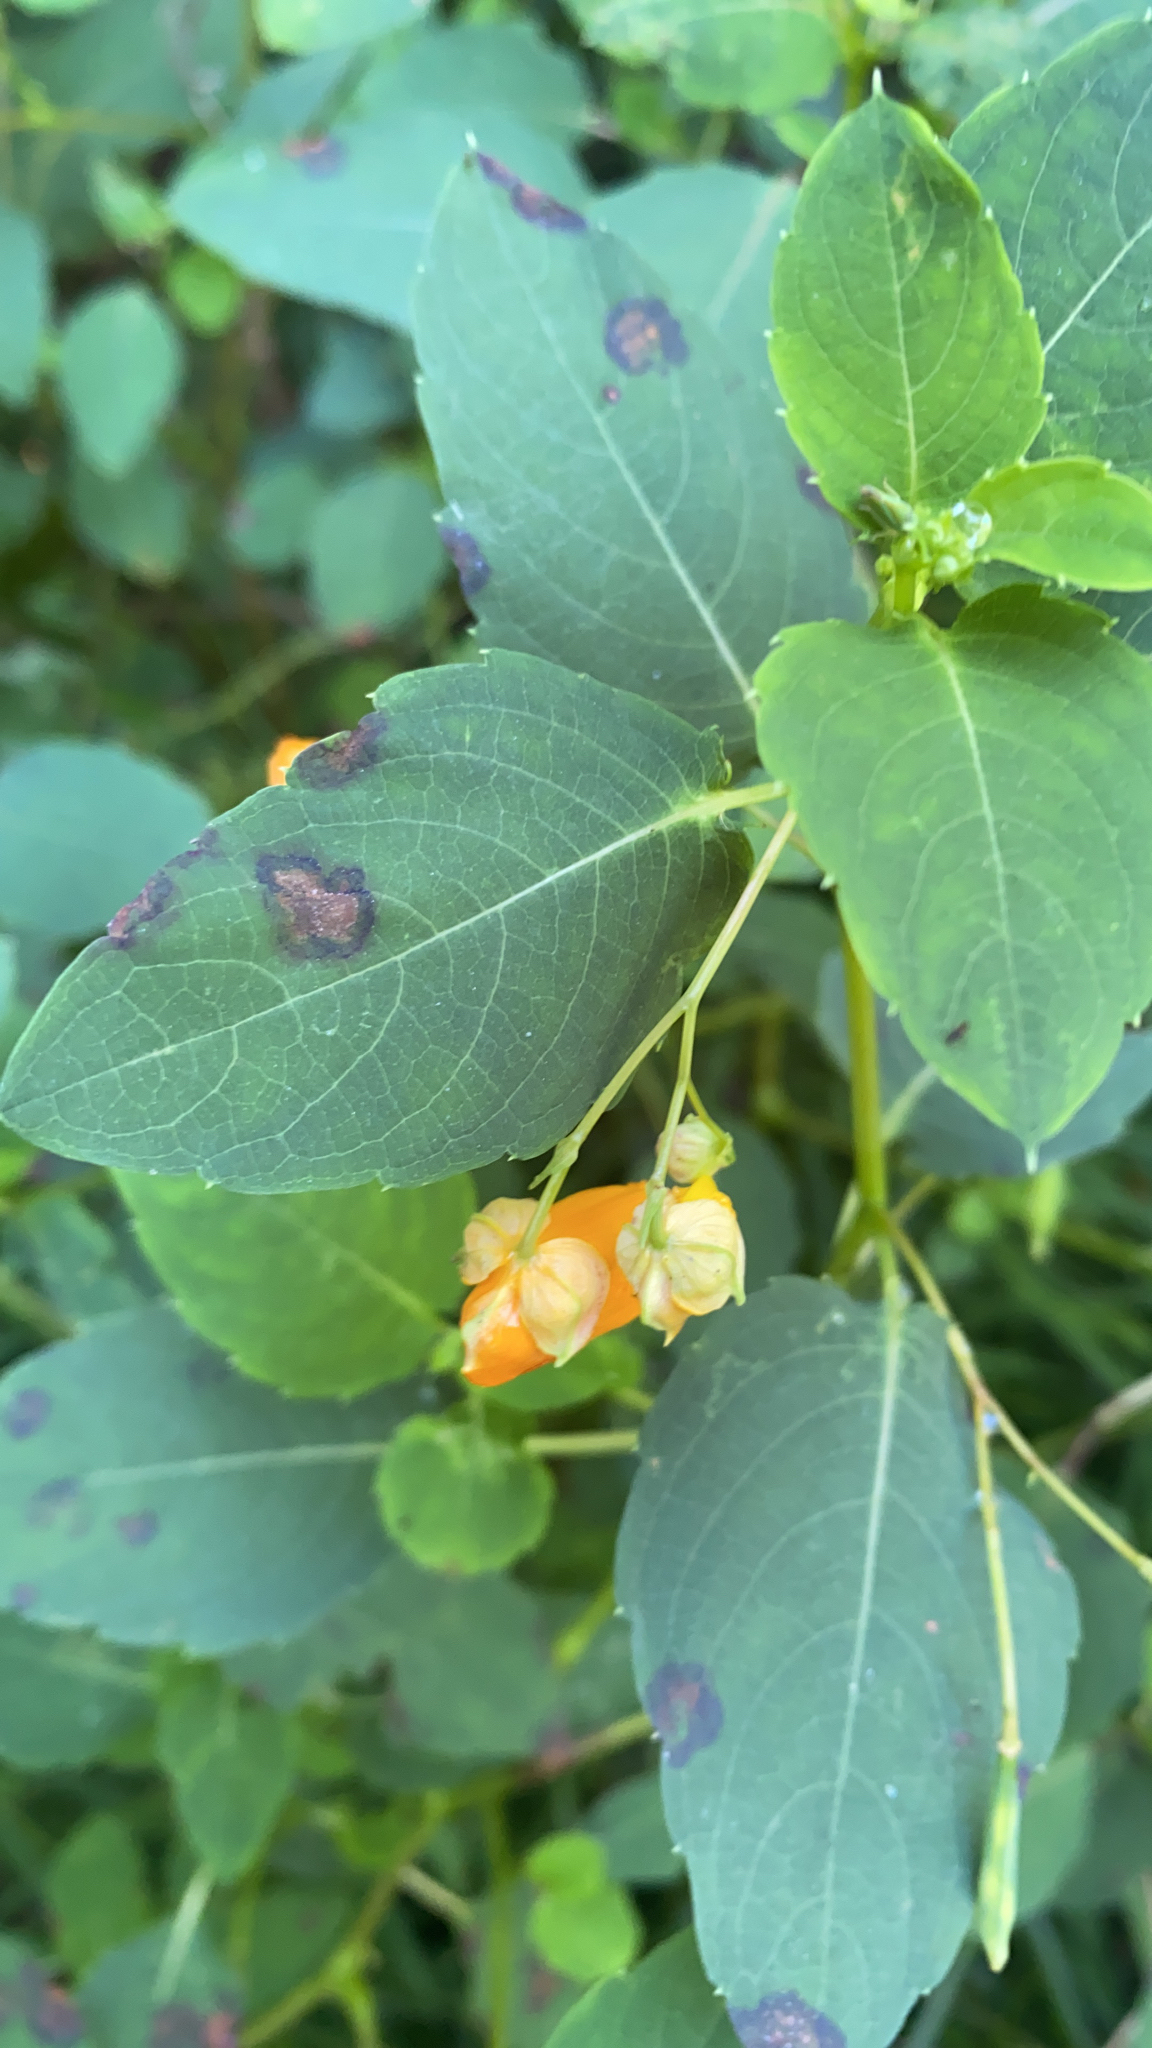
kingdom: Plantae
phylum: Tracheophyta
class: Magnoliopsida
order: Ericales
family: Balsaminaceae
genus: Impatiens
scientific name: Impatiens capensis
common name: Orange balsam
